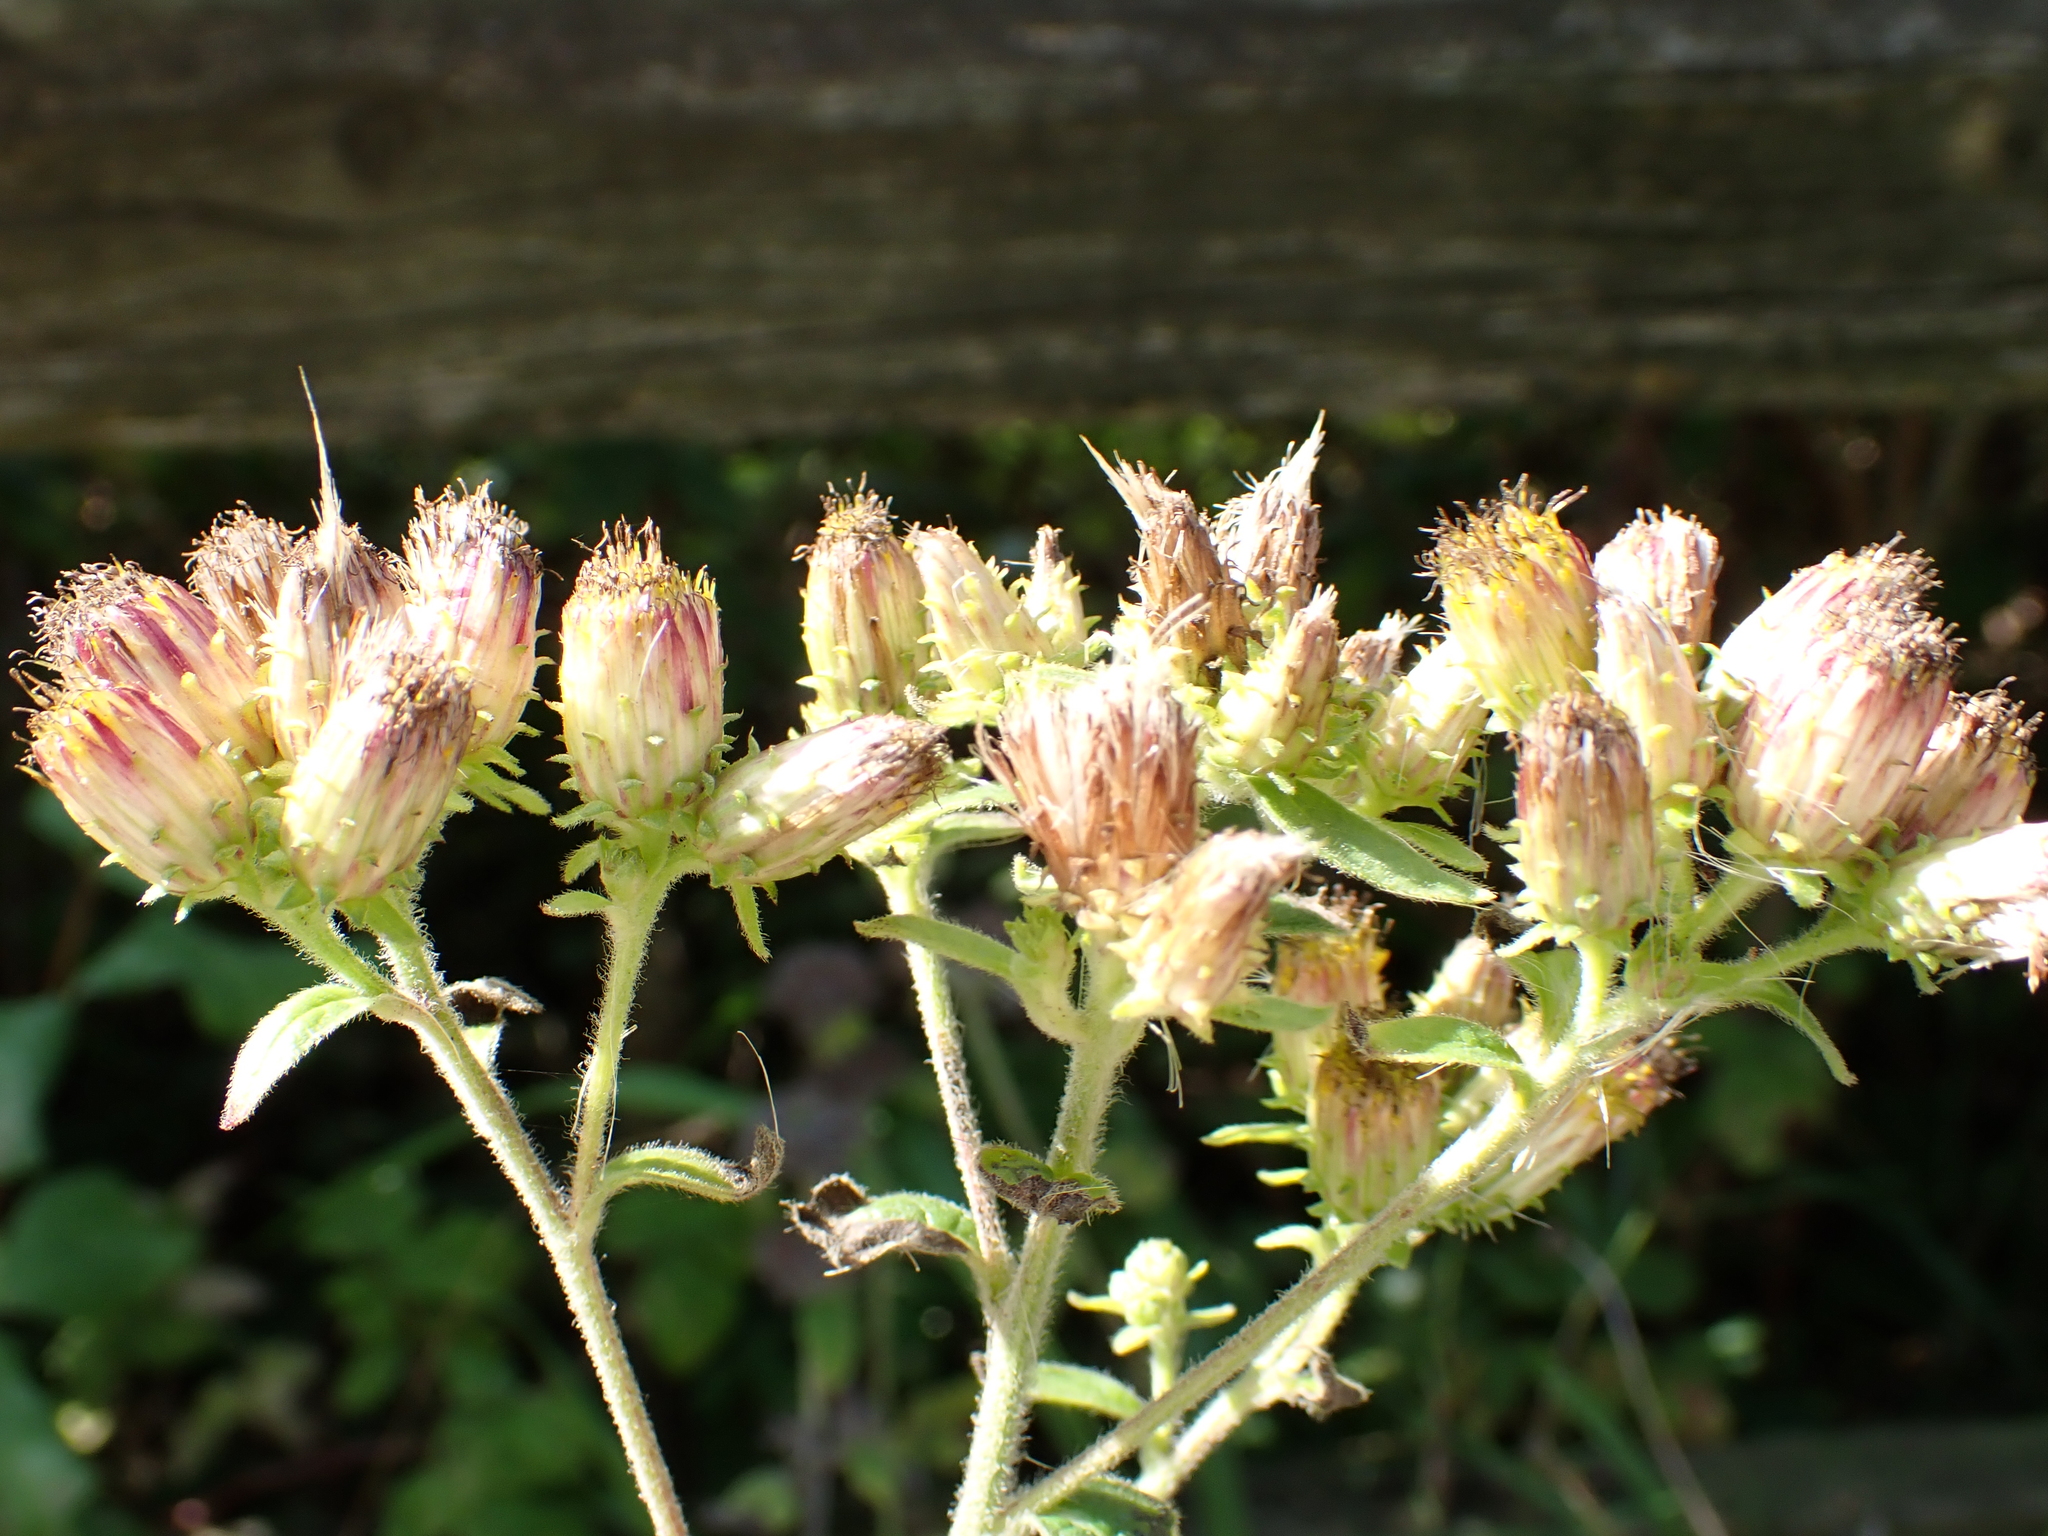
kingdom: Plantae
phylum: Tracheophyta
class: Magnoliopsida
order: Asterales
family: Asteraceae
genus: Pentanema
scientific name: Pentanema squarrosum
